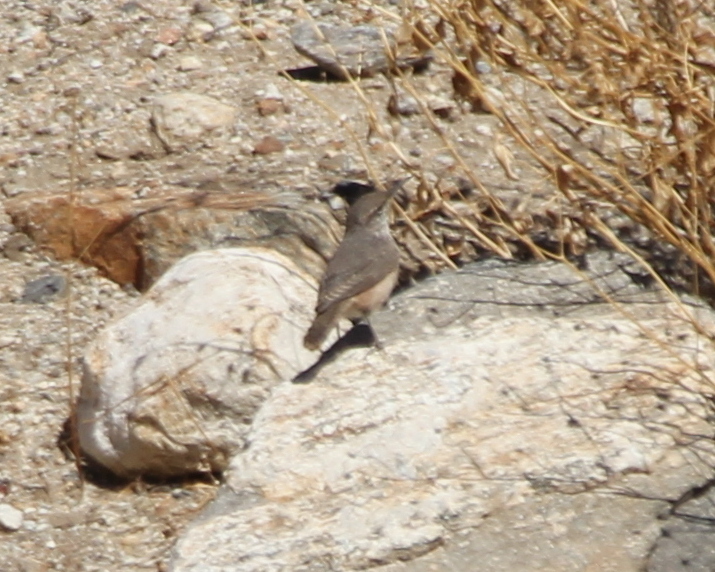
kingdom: Animalia
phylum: Chordata
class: Aves
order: Passeriformes
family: Troglodytidae
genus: Salpinctes
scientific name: Salpinctes obsoletus
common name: Rock wren
